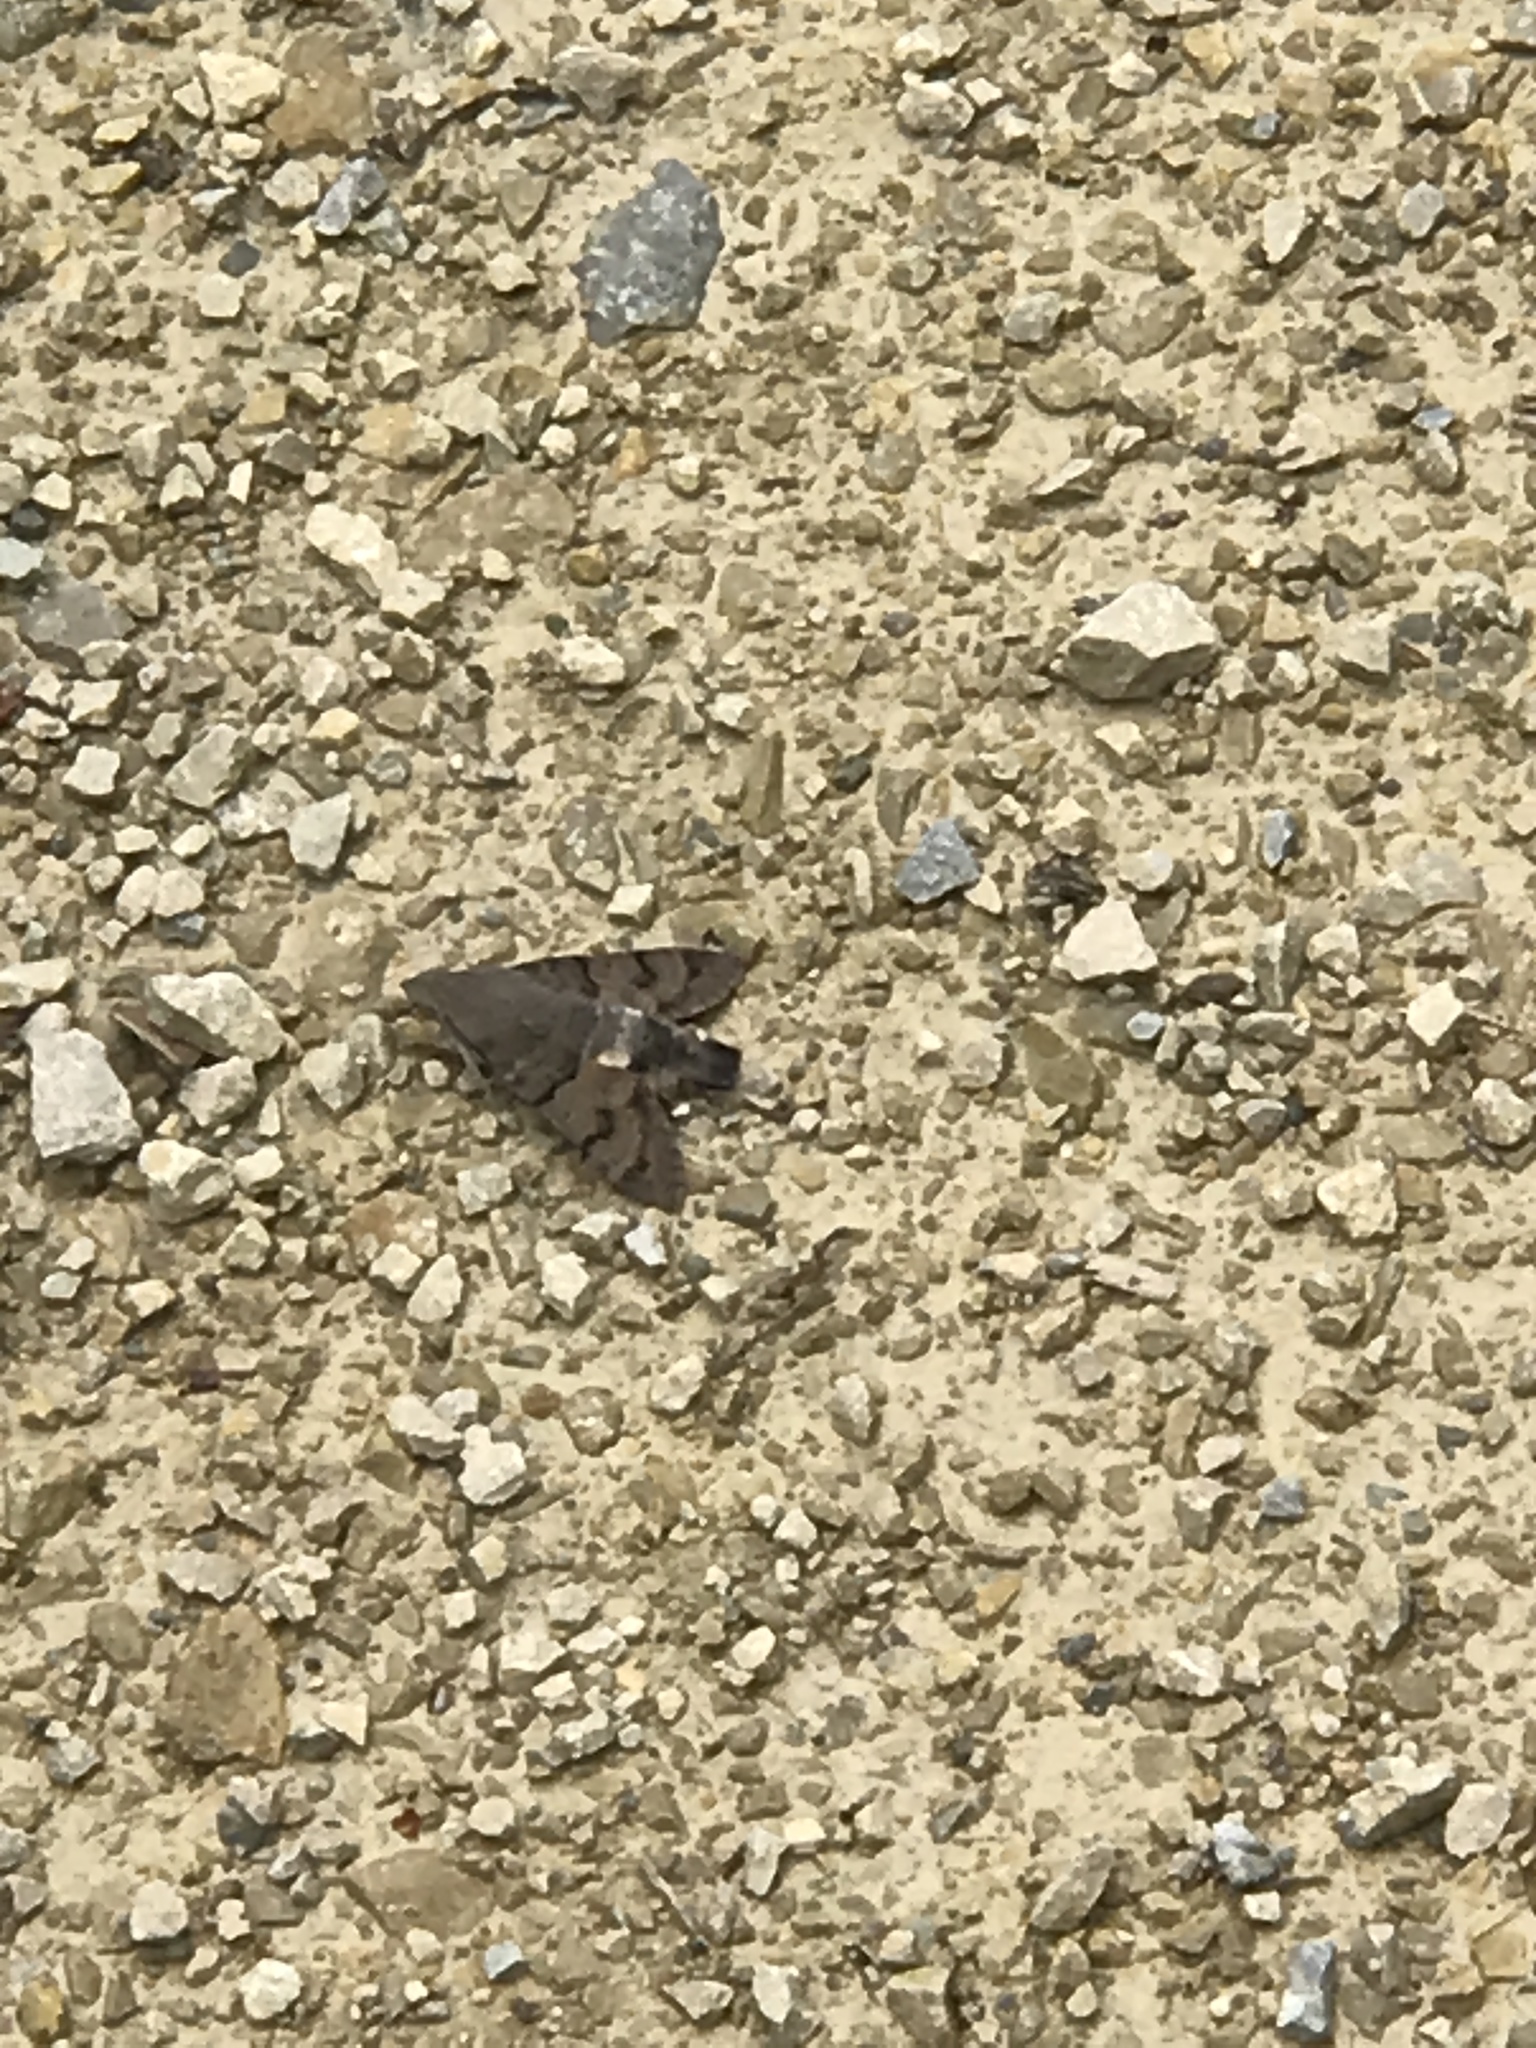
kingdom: Animalia
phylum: Arthropoda
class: Insecta
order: Lepidoptera
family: Sphingidae
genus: Macroglossum
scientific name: Macroglossum stellatarum
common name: Humming-bird hawk-moth
